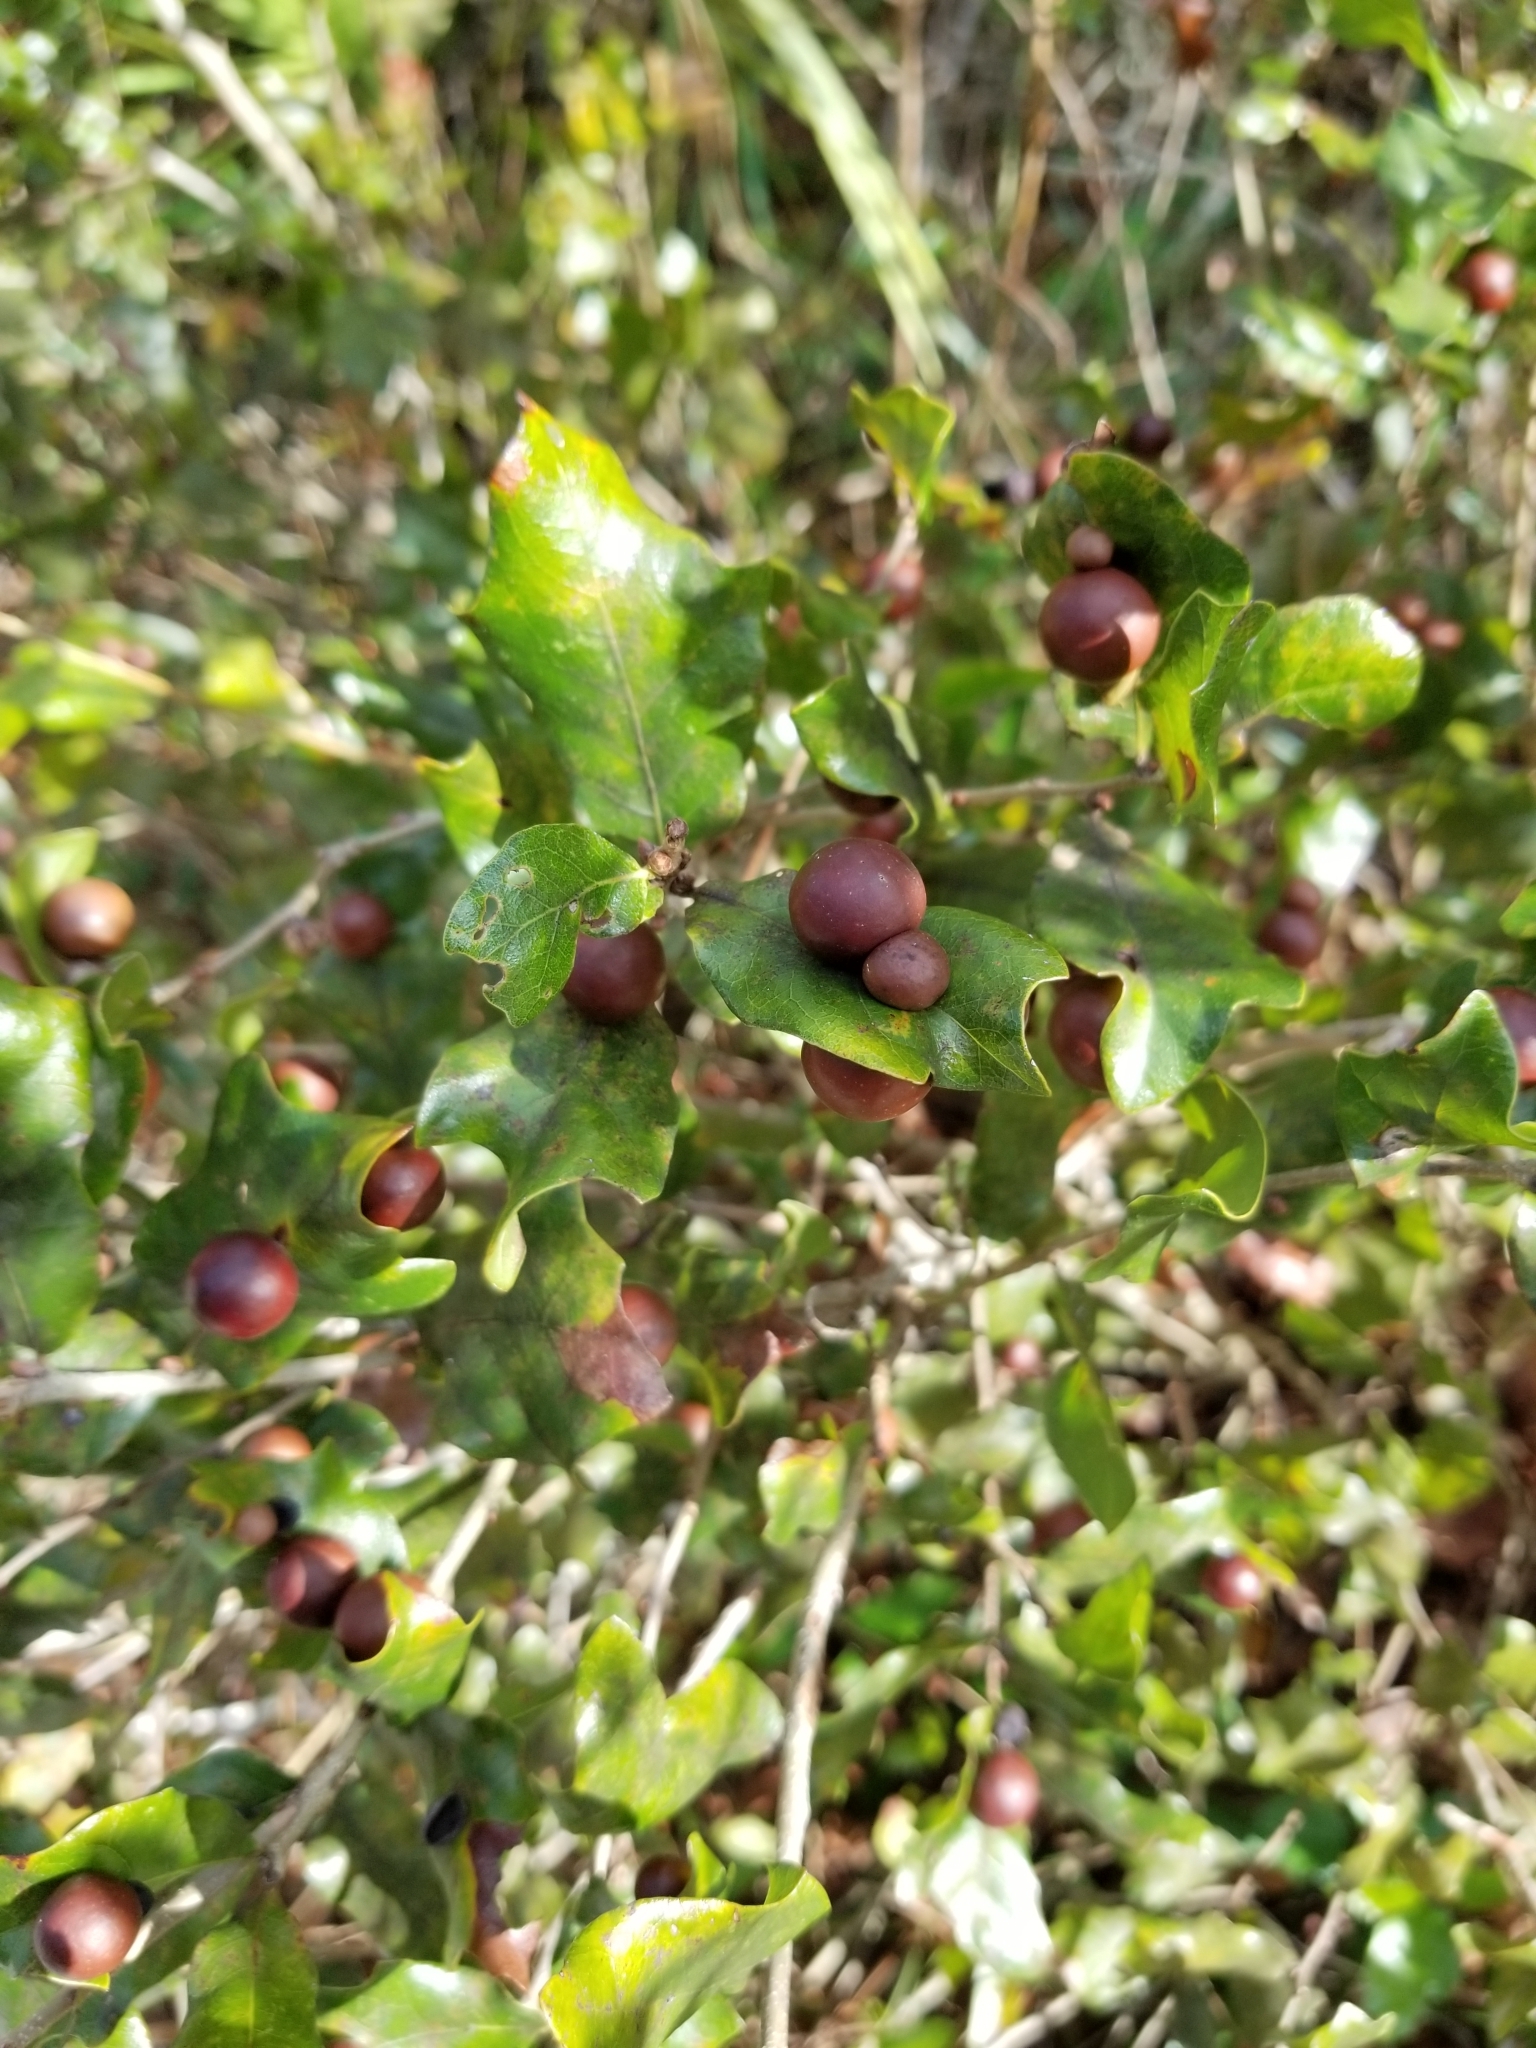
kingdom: Animalia
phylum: Arthropoda
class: Insecta
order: Hymenoptera
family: Cynipidae
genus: Trigonaspis
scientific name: Trigonaspis
